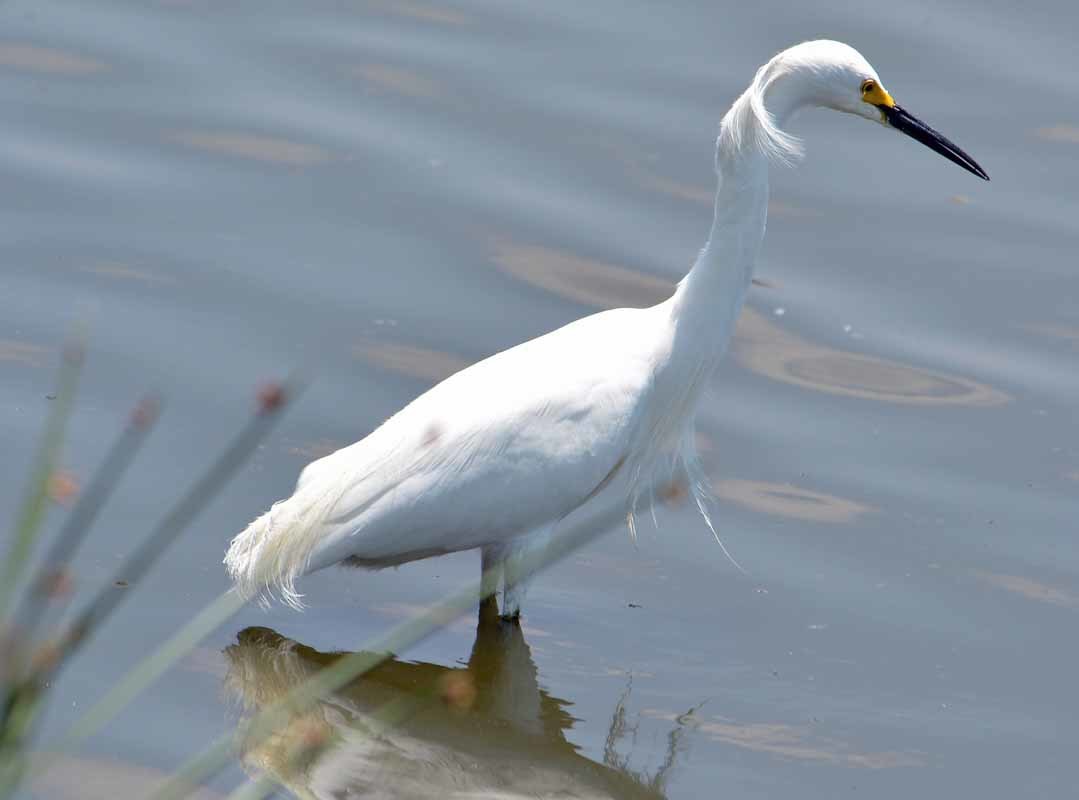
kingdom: Animalia
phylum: Chordata
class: Aves
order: Pelecaniformes
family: Ardeidae
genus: Egretta
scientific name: Egretta thula
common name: Snowy egret
